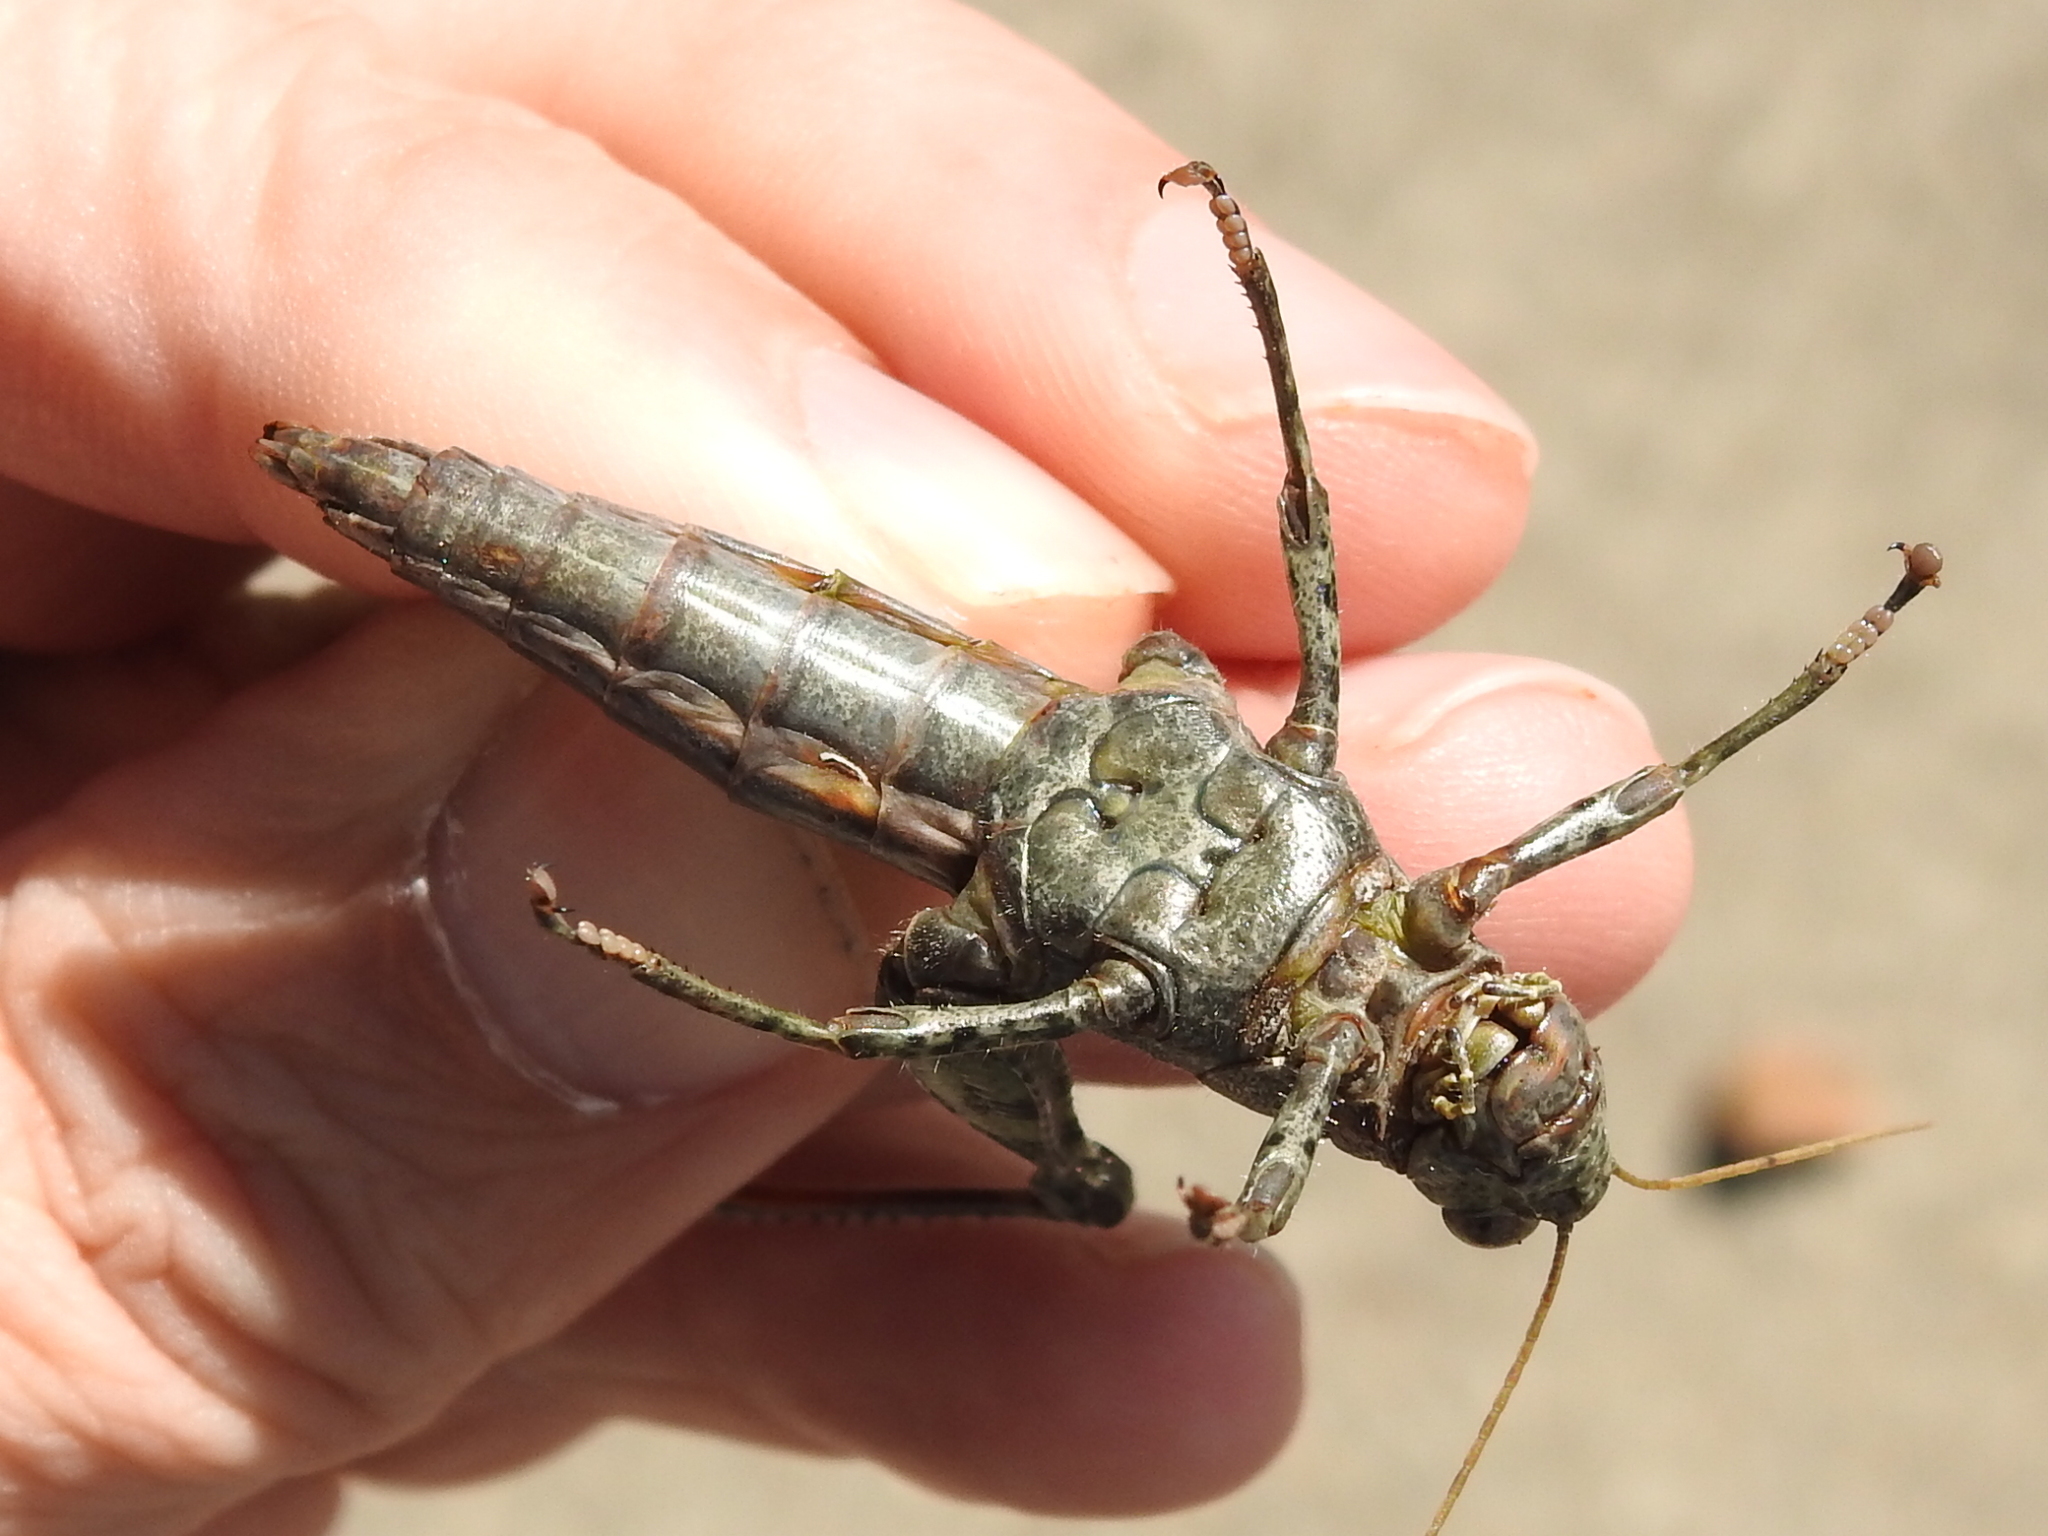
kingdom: Animalia
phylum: Arthropoda
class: Insecta
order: Orthoptera
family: Acrididae
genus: Melanoplus
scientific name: Melanoplus punctulatus
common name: Pine-tree spur-throat grasshopper
